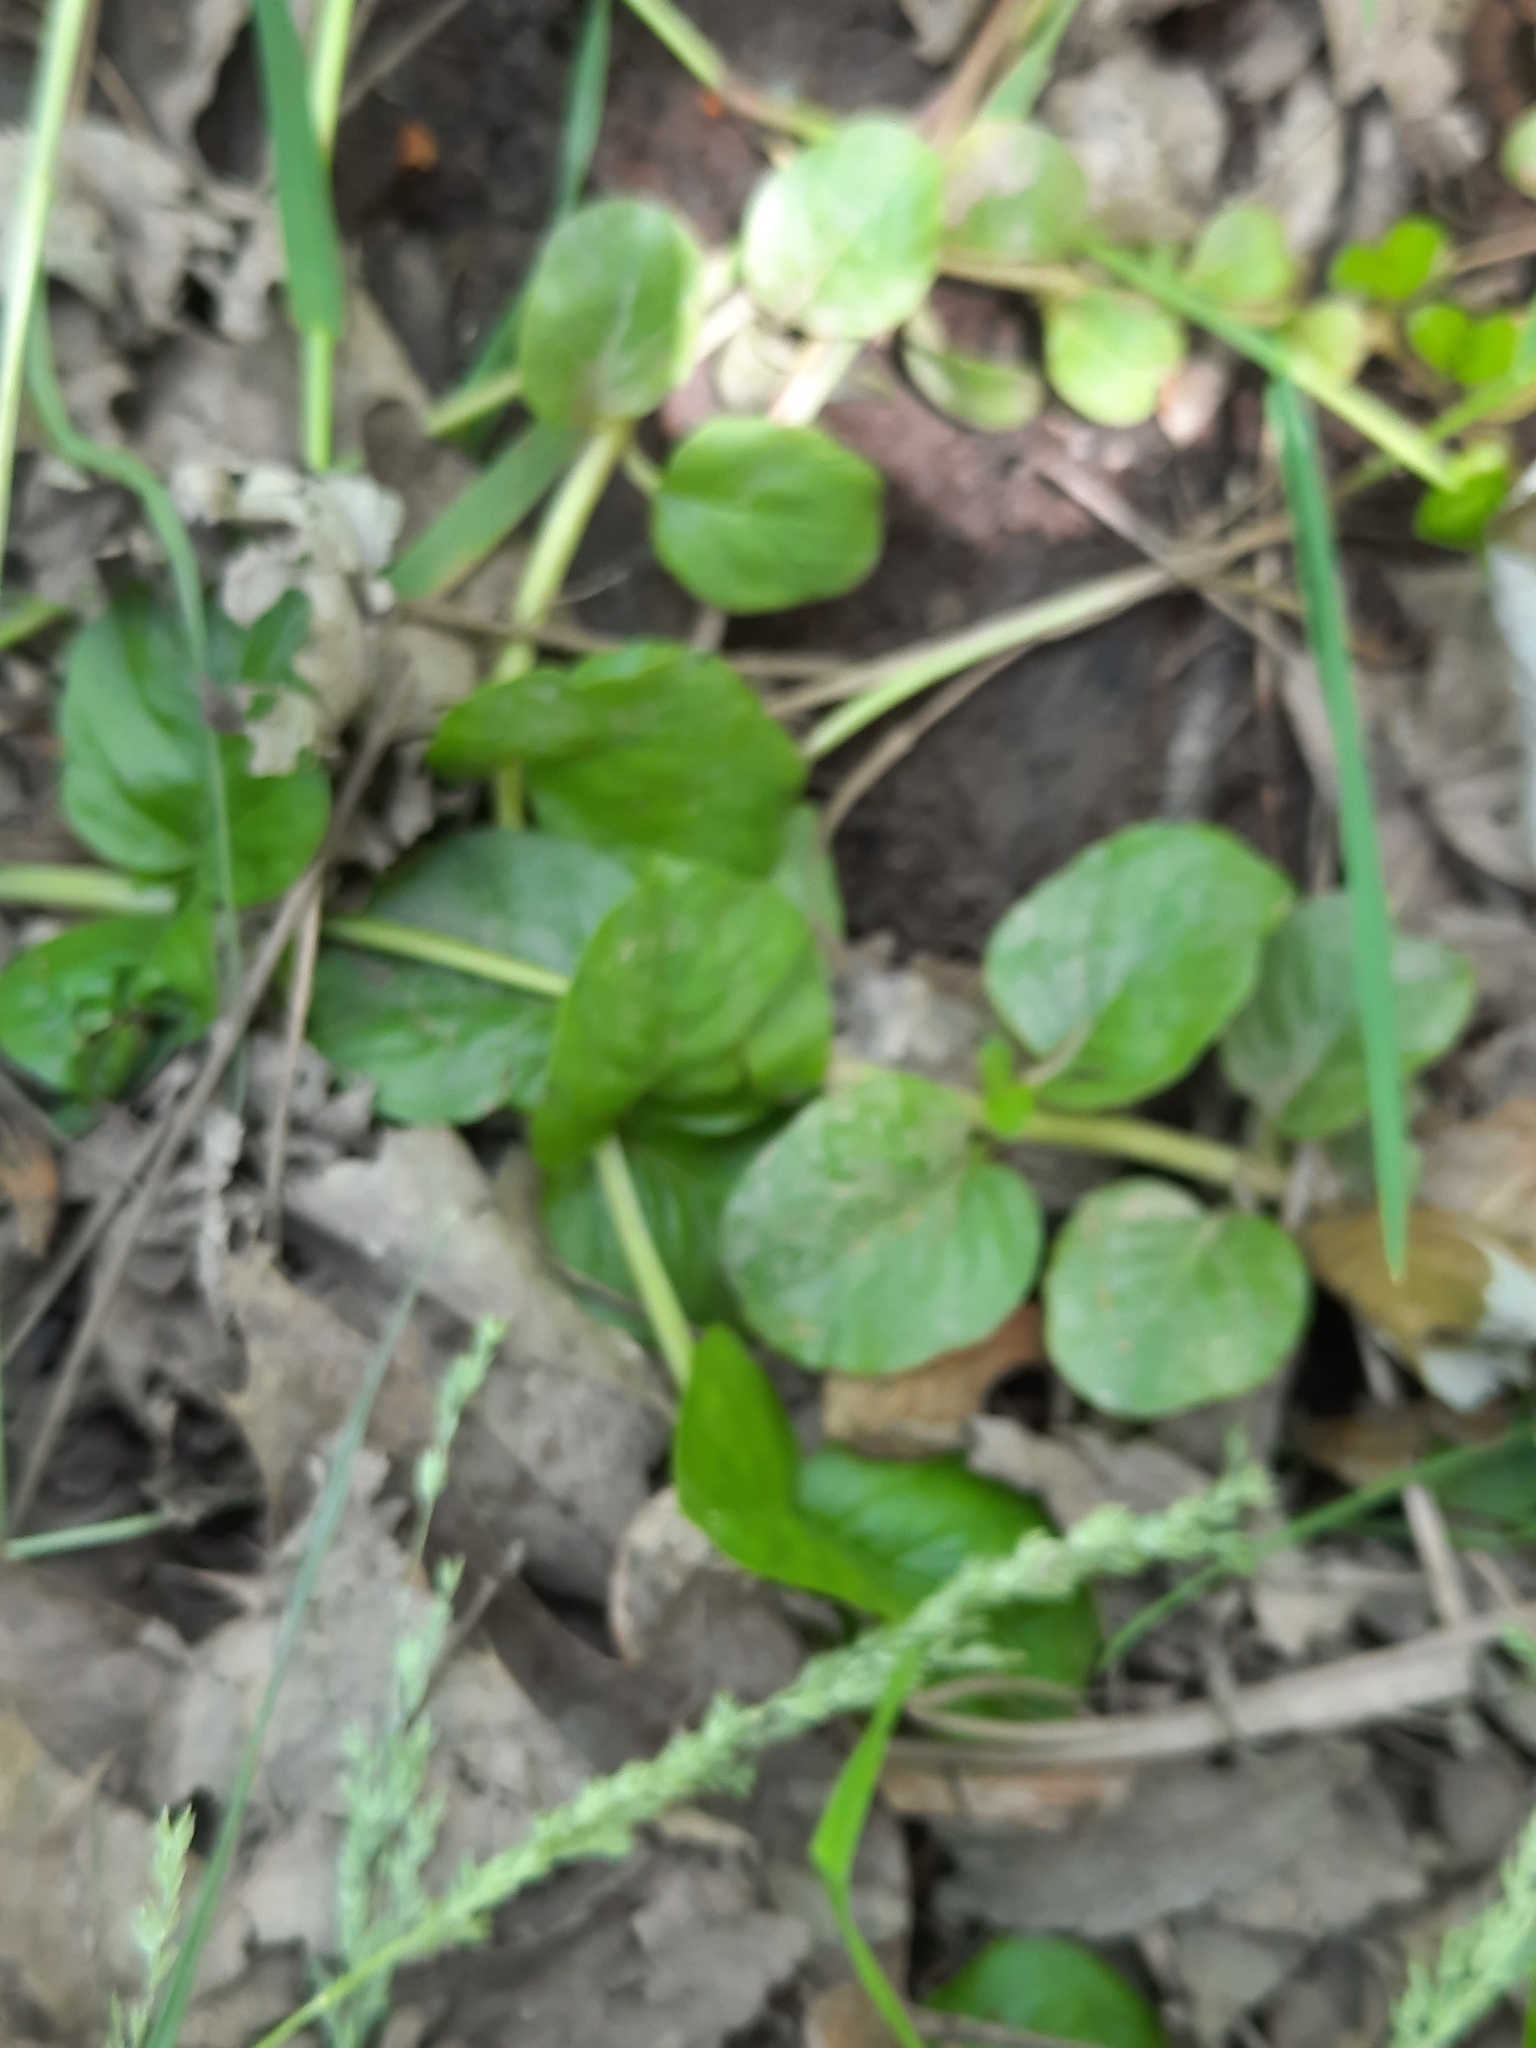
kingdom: Plantae
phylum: Tracheophyta
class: Magnoliopsida
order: Ericales
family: Primulaceae
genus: Lysimachia
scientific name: Lysimachia nummularia
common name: Moneywort
